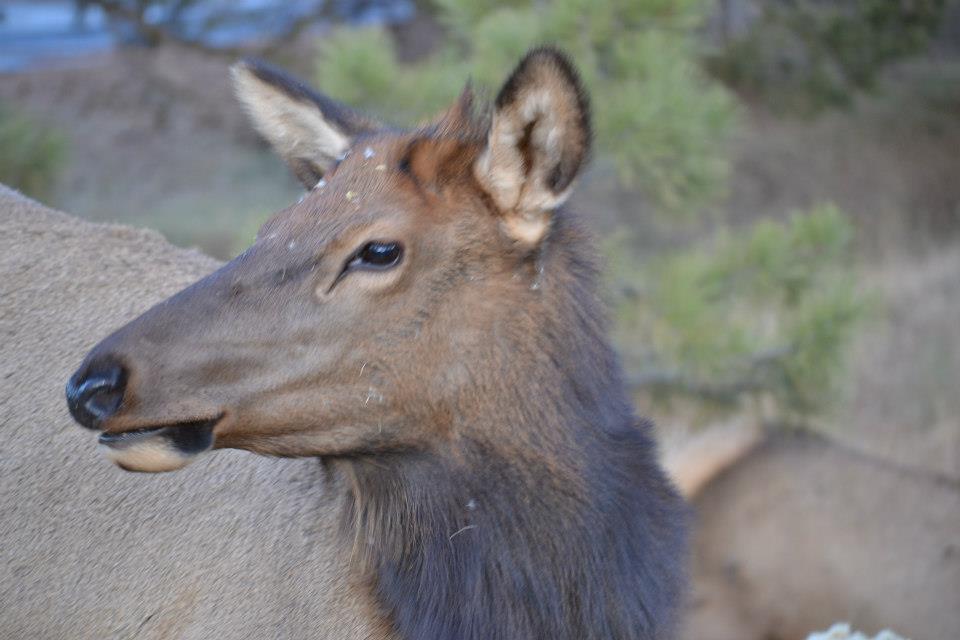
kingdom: Animalia
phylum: Chordata
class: Mammalia
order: Artiodactyla
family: Cervidae
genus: Cervus
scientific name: Cervus elaphus
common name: Red deer
